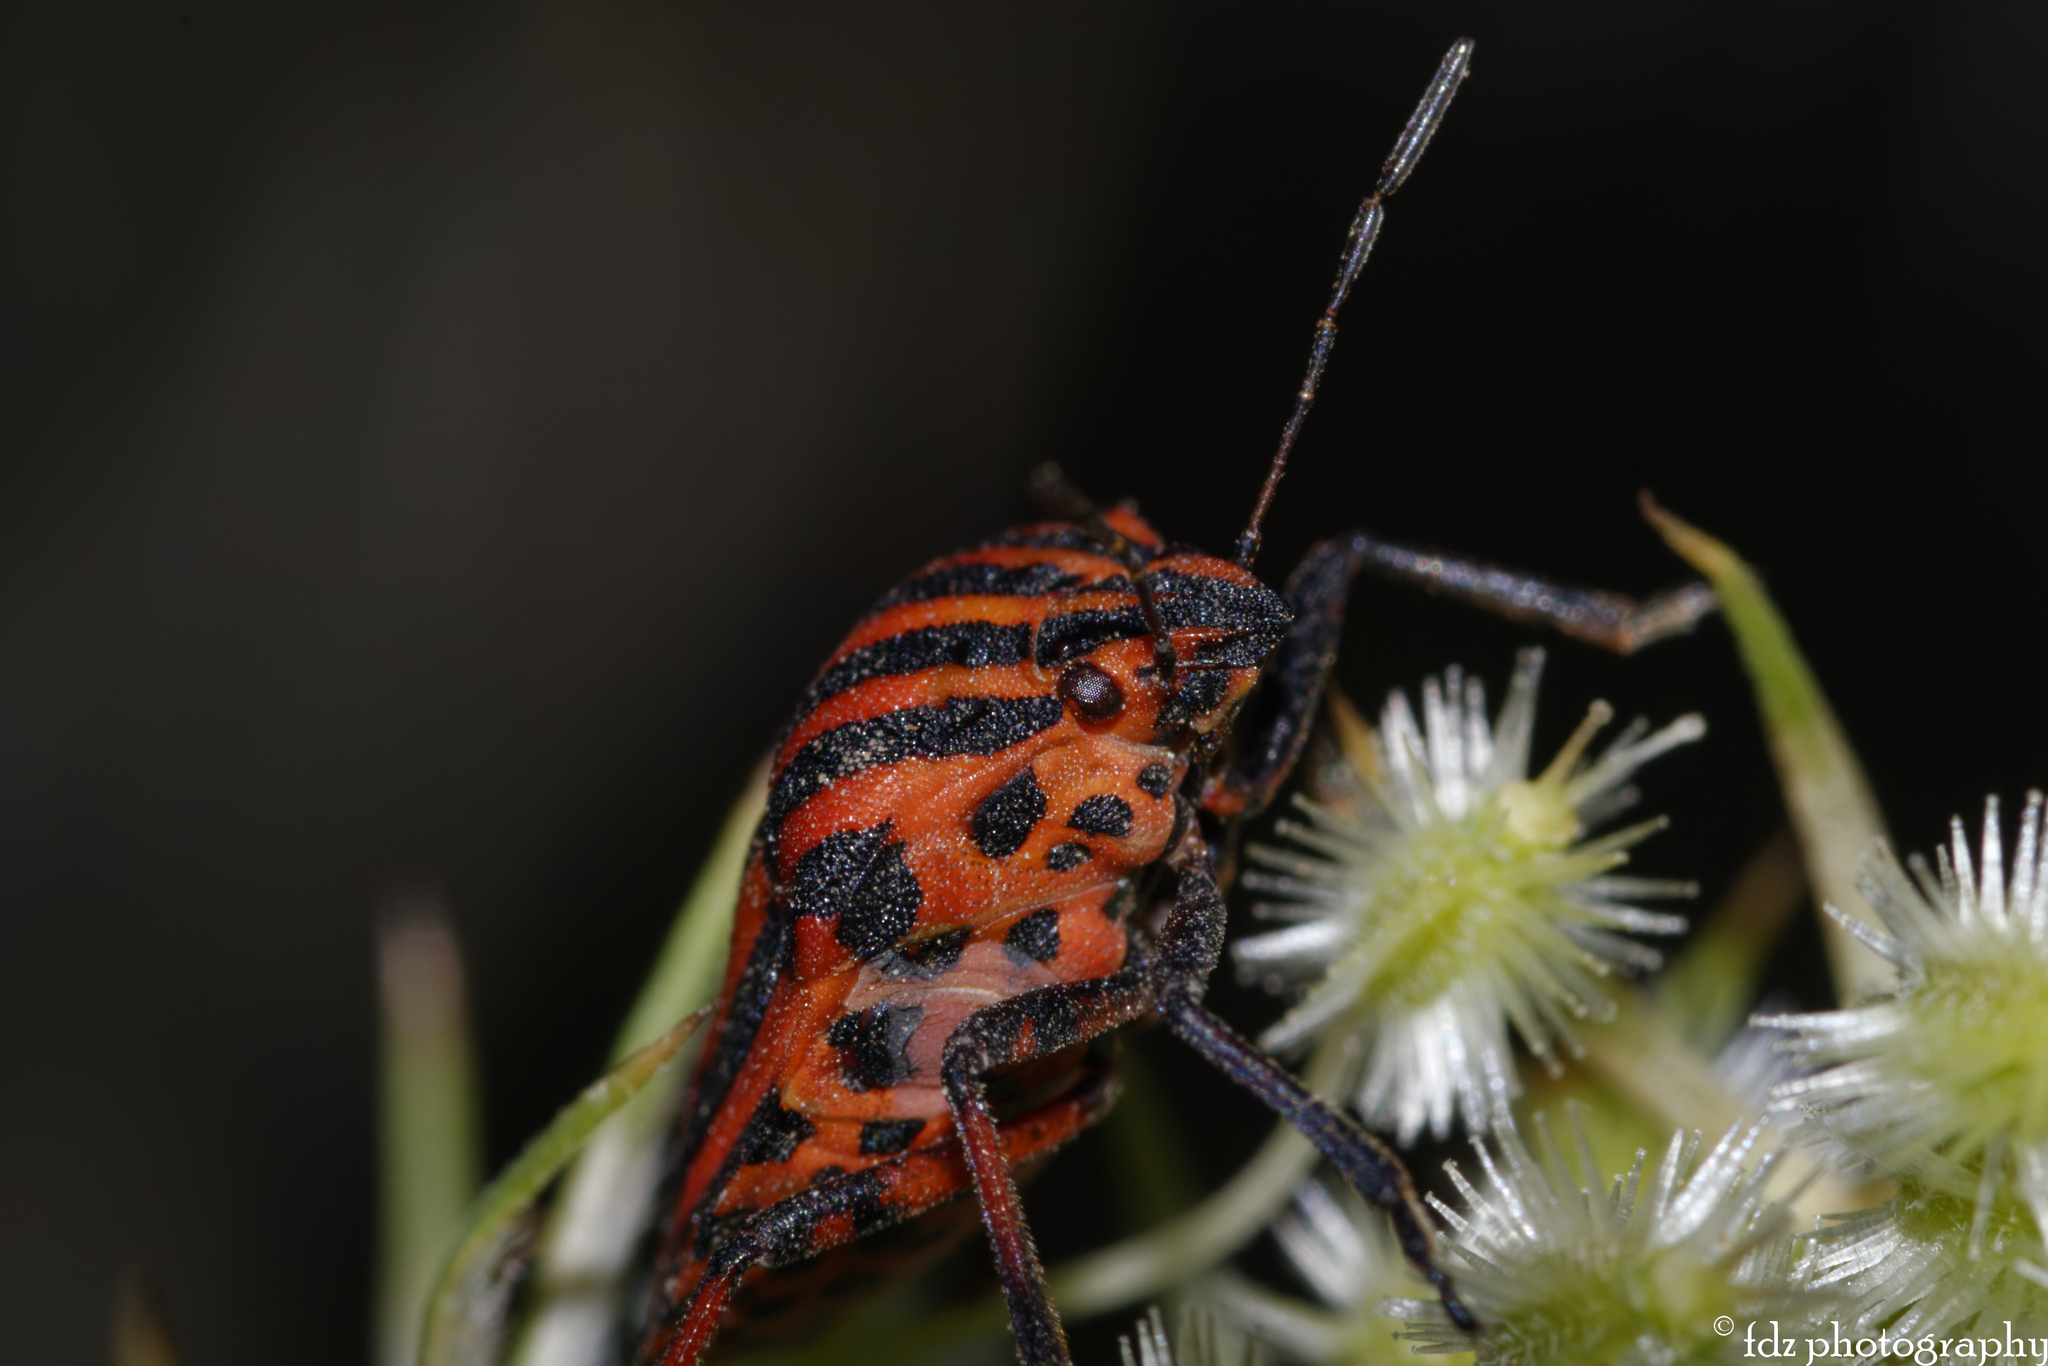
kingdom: Animalia
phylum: Arthropoda
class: Insecta
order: Hemiptera
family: Pentatomidae
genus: Graphosoma
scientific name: Graphosoma italicum
